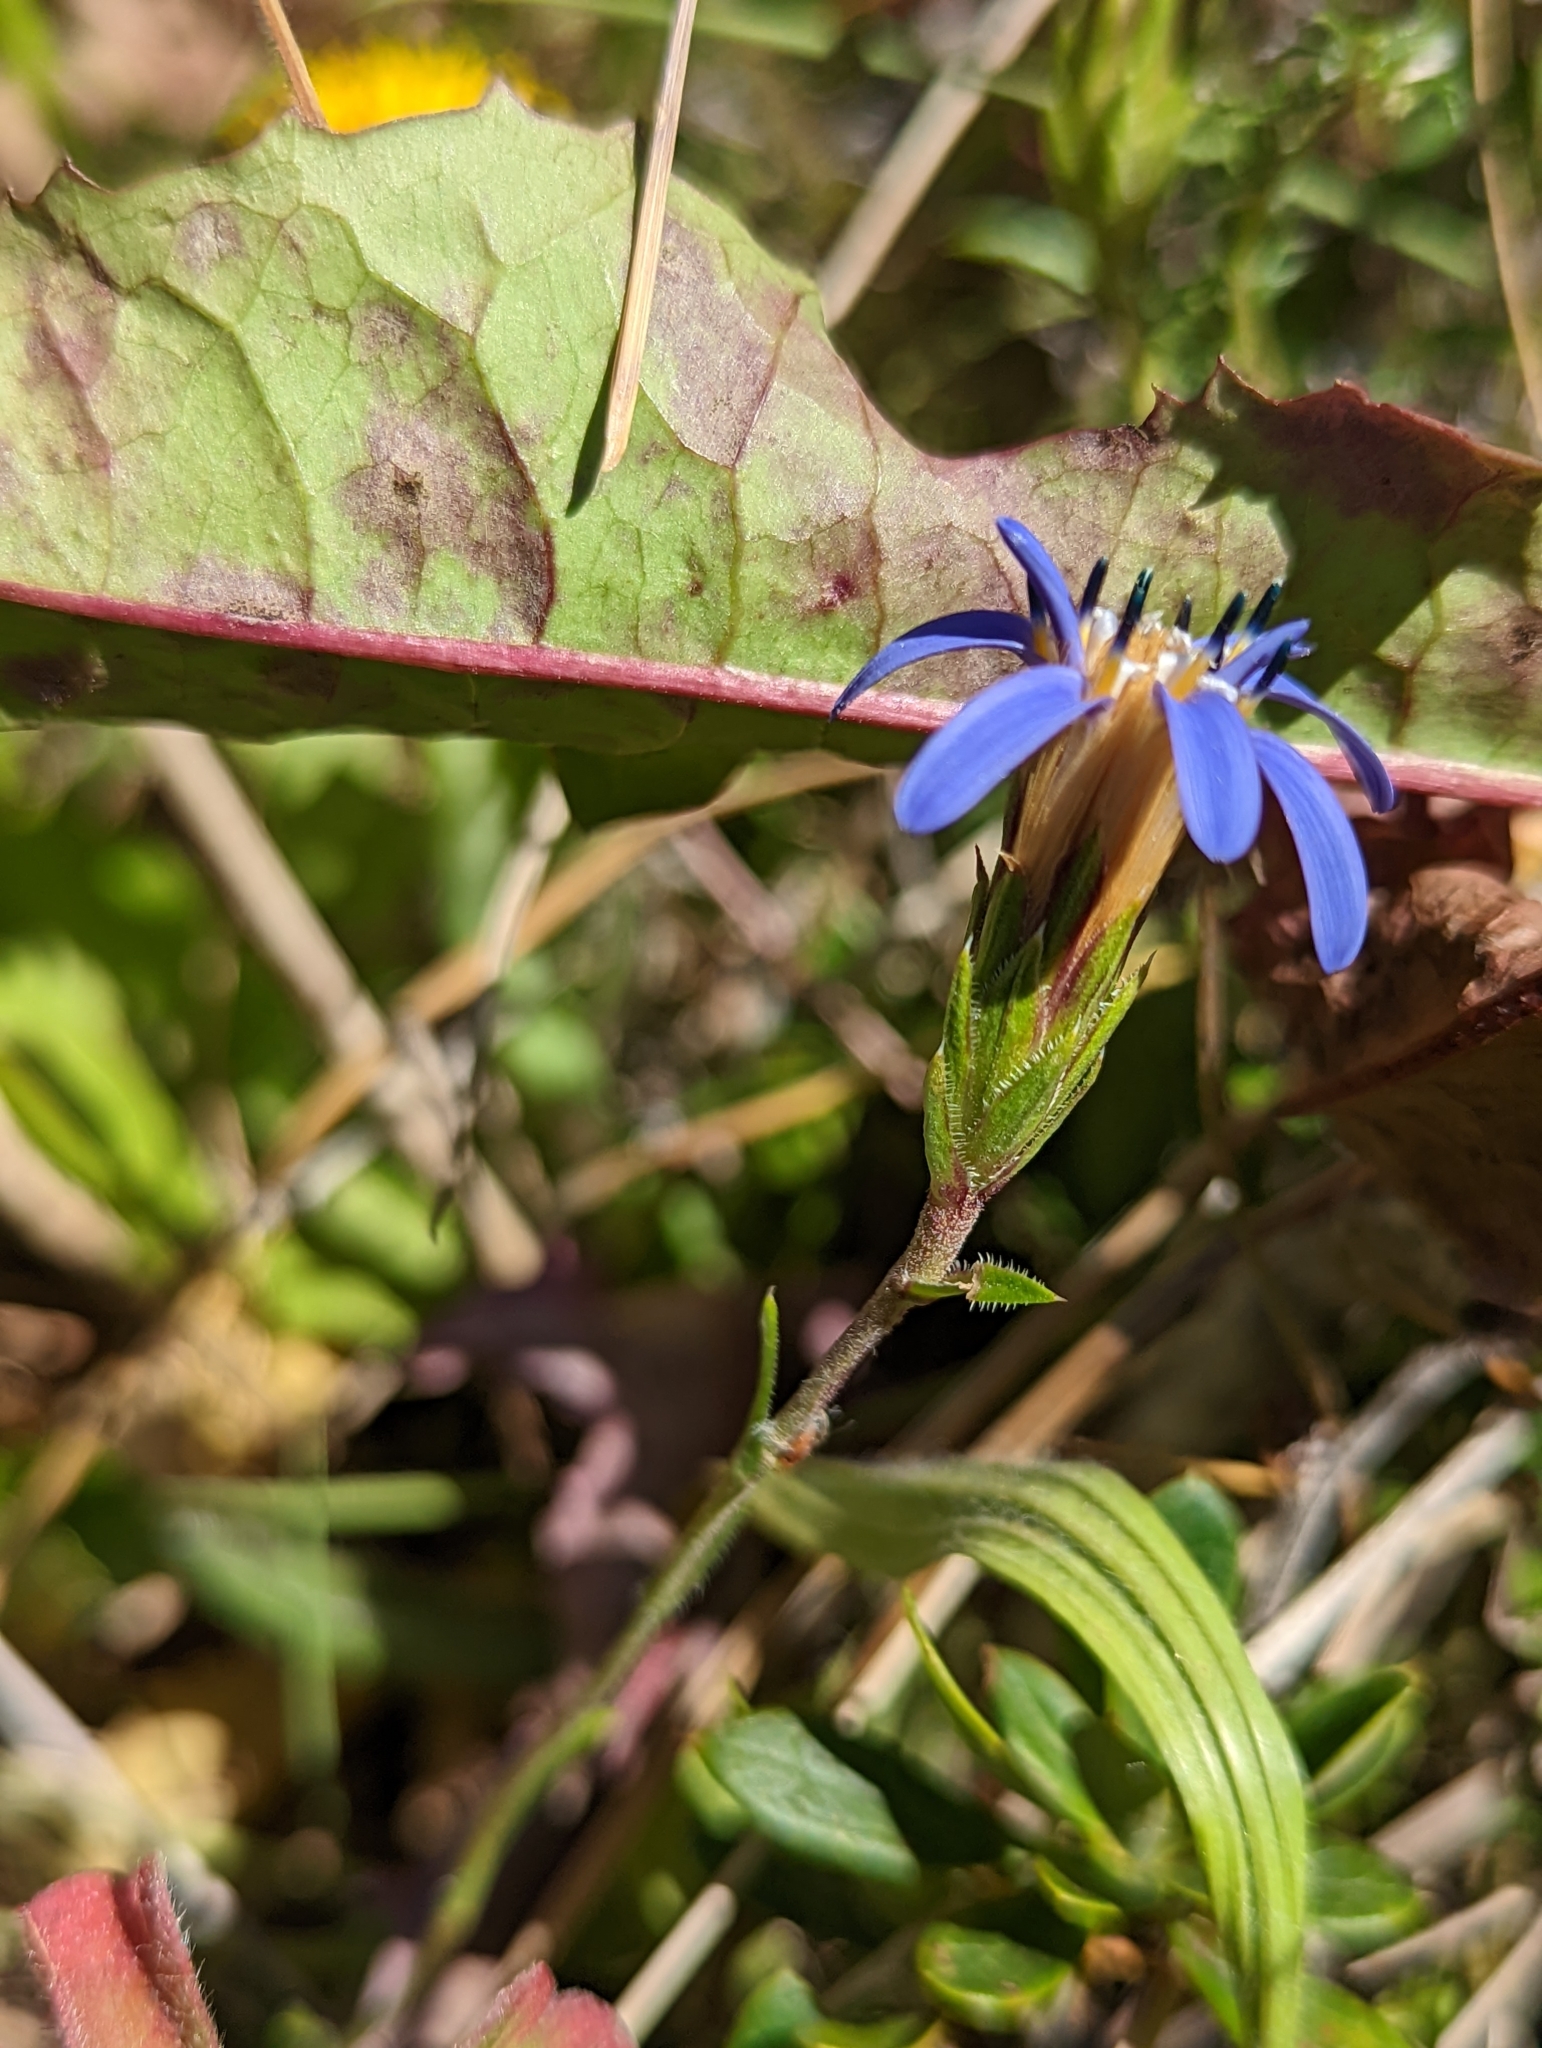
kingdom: Plantae
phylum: Tracheophyta
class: Magnoliopsida
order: Asterales
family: Asteraceae
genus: Perezia
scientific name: Perezia recurvata
